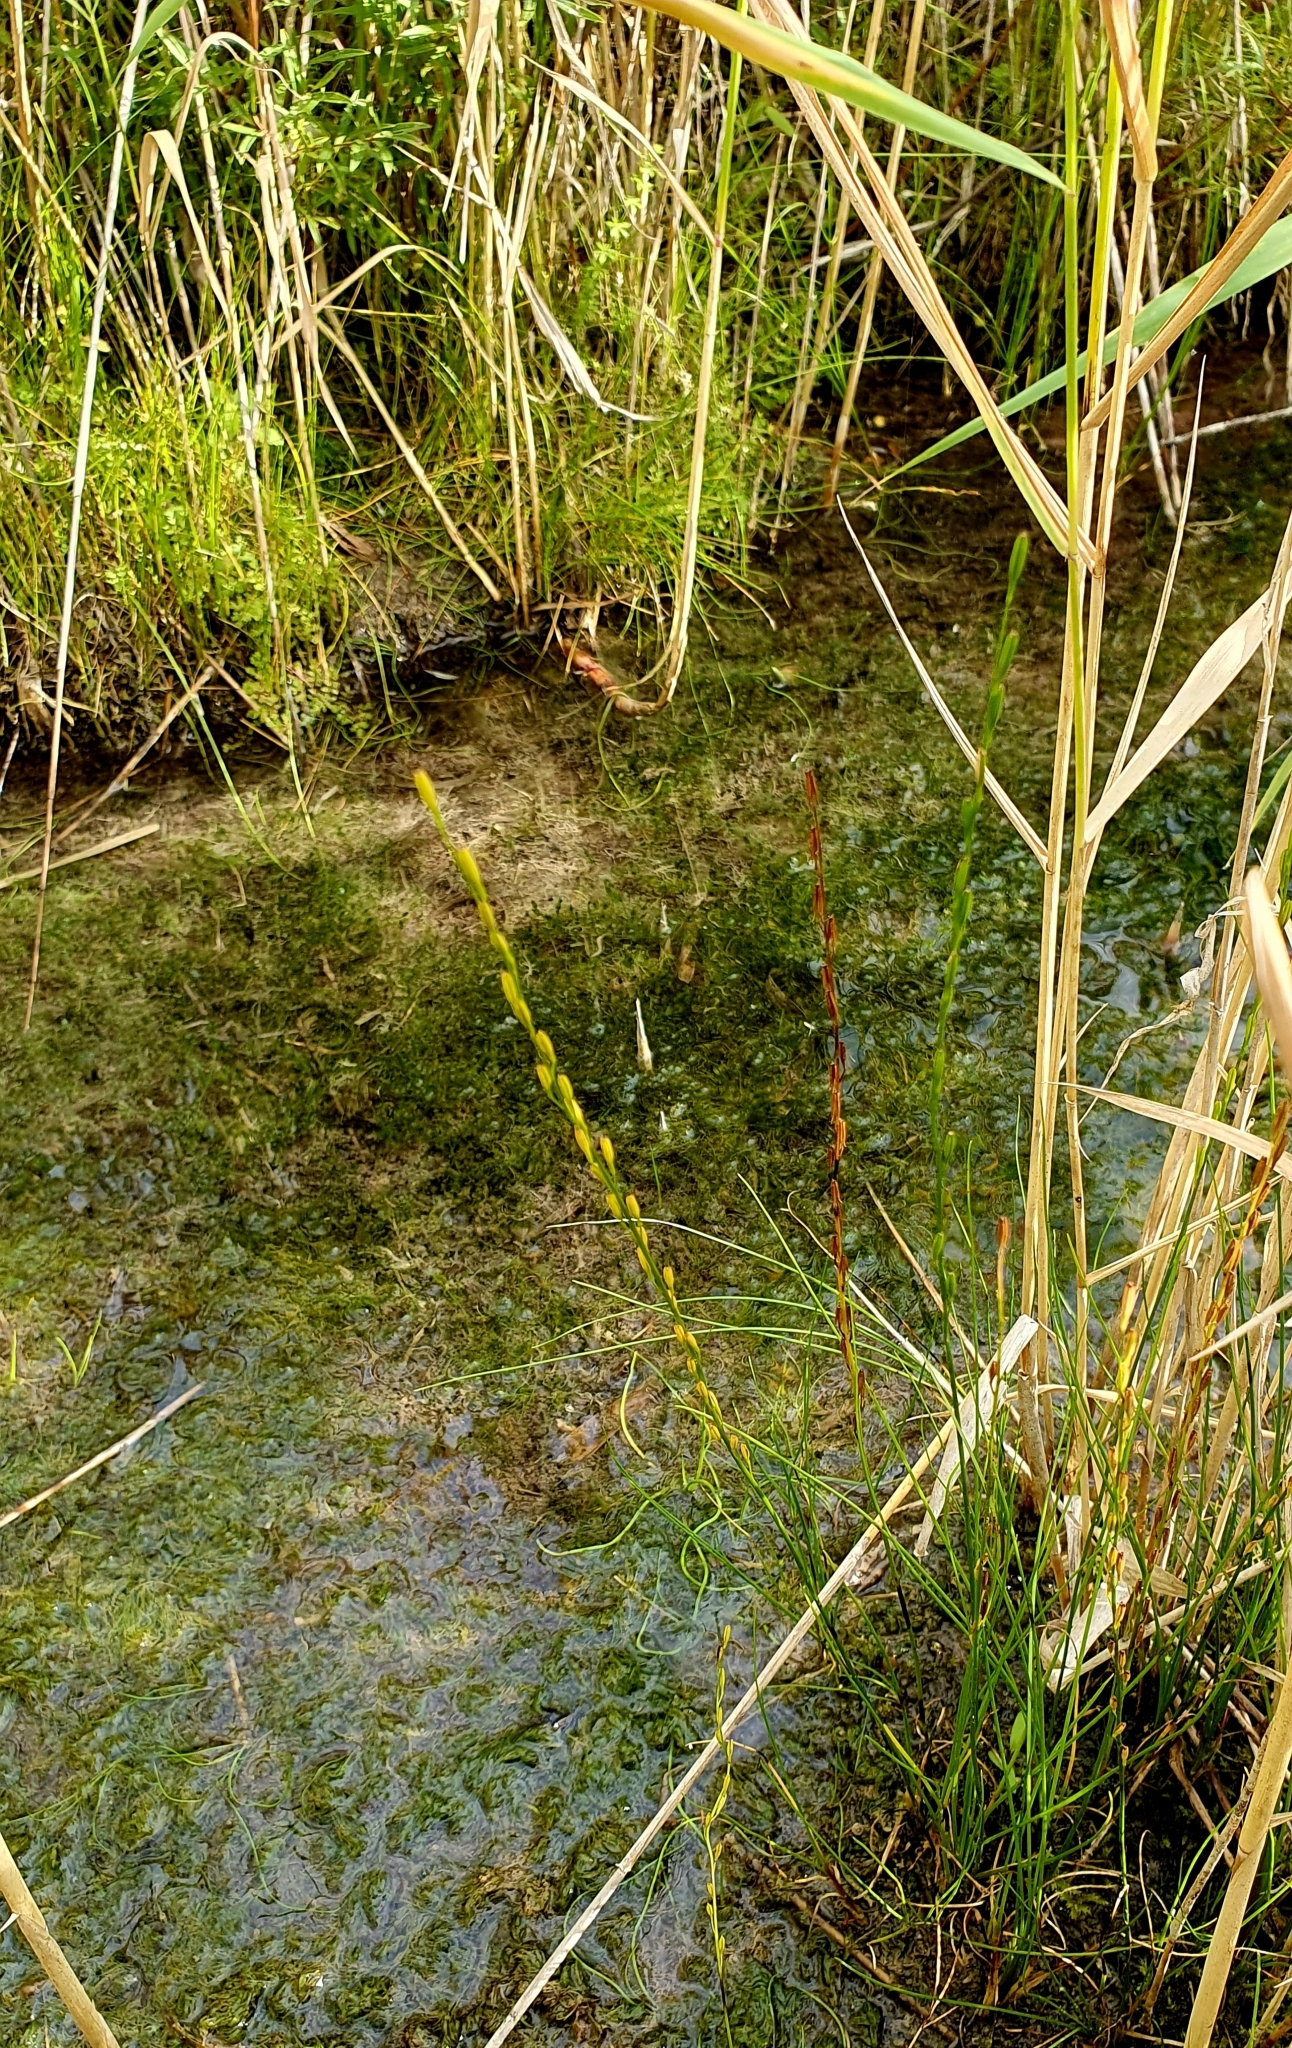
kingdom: Plantae
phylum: Tracheophyta
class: Liliopsida
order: Alismatales
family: Juncaginaceae
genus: Triglochin
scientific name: Triglochin palustris
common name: Marsh arrowgrass
